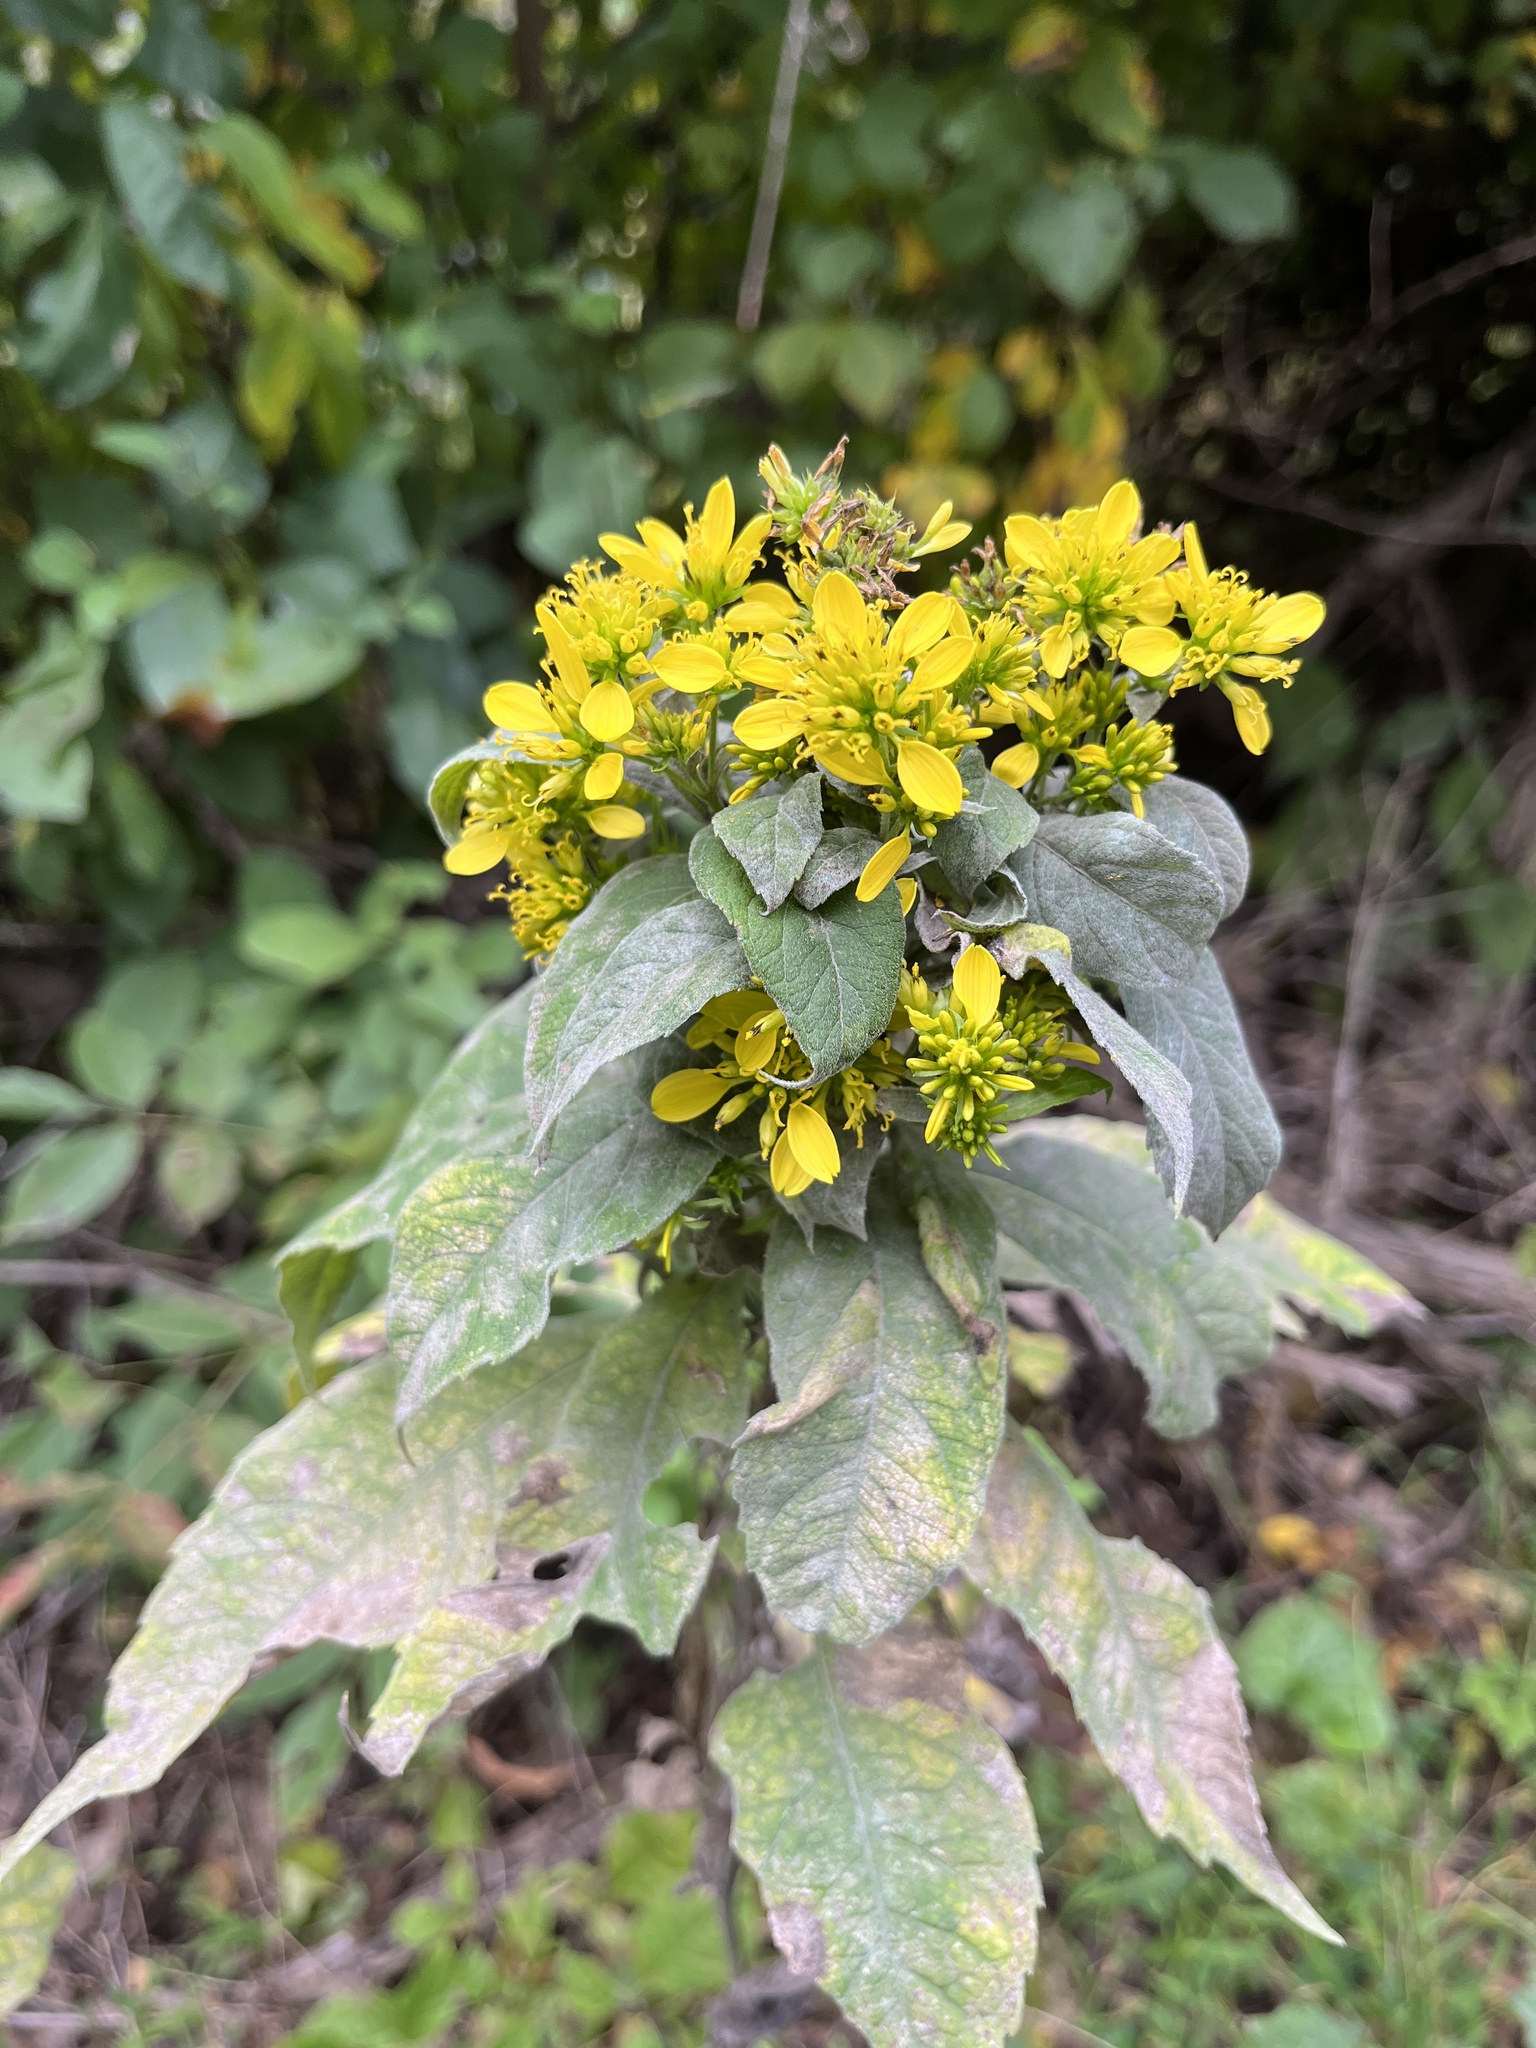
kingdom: Plantae
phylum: Tracheophyta
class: Magnoliopsida
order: Asterales
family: Asteraceae
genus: Verbesina
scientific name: Verbesina alternifolia
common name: Wingstem
